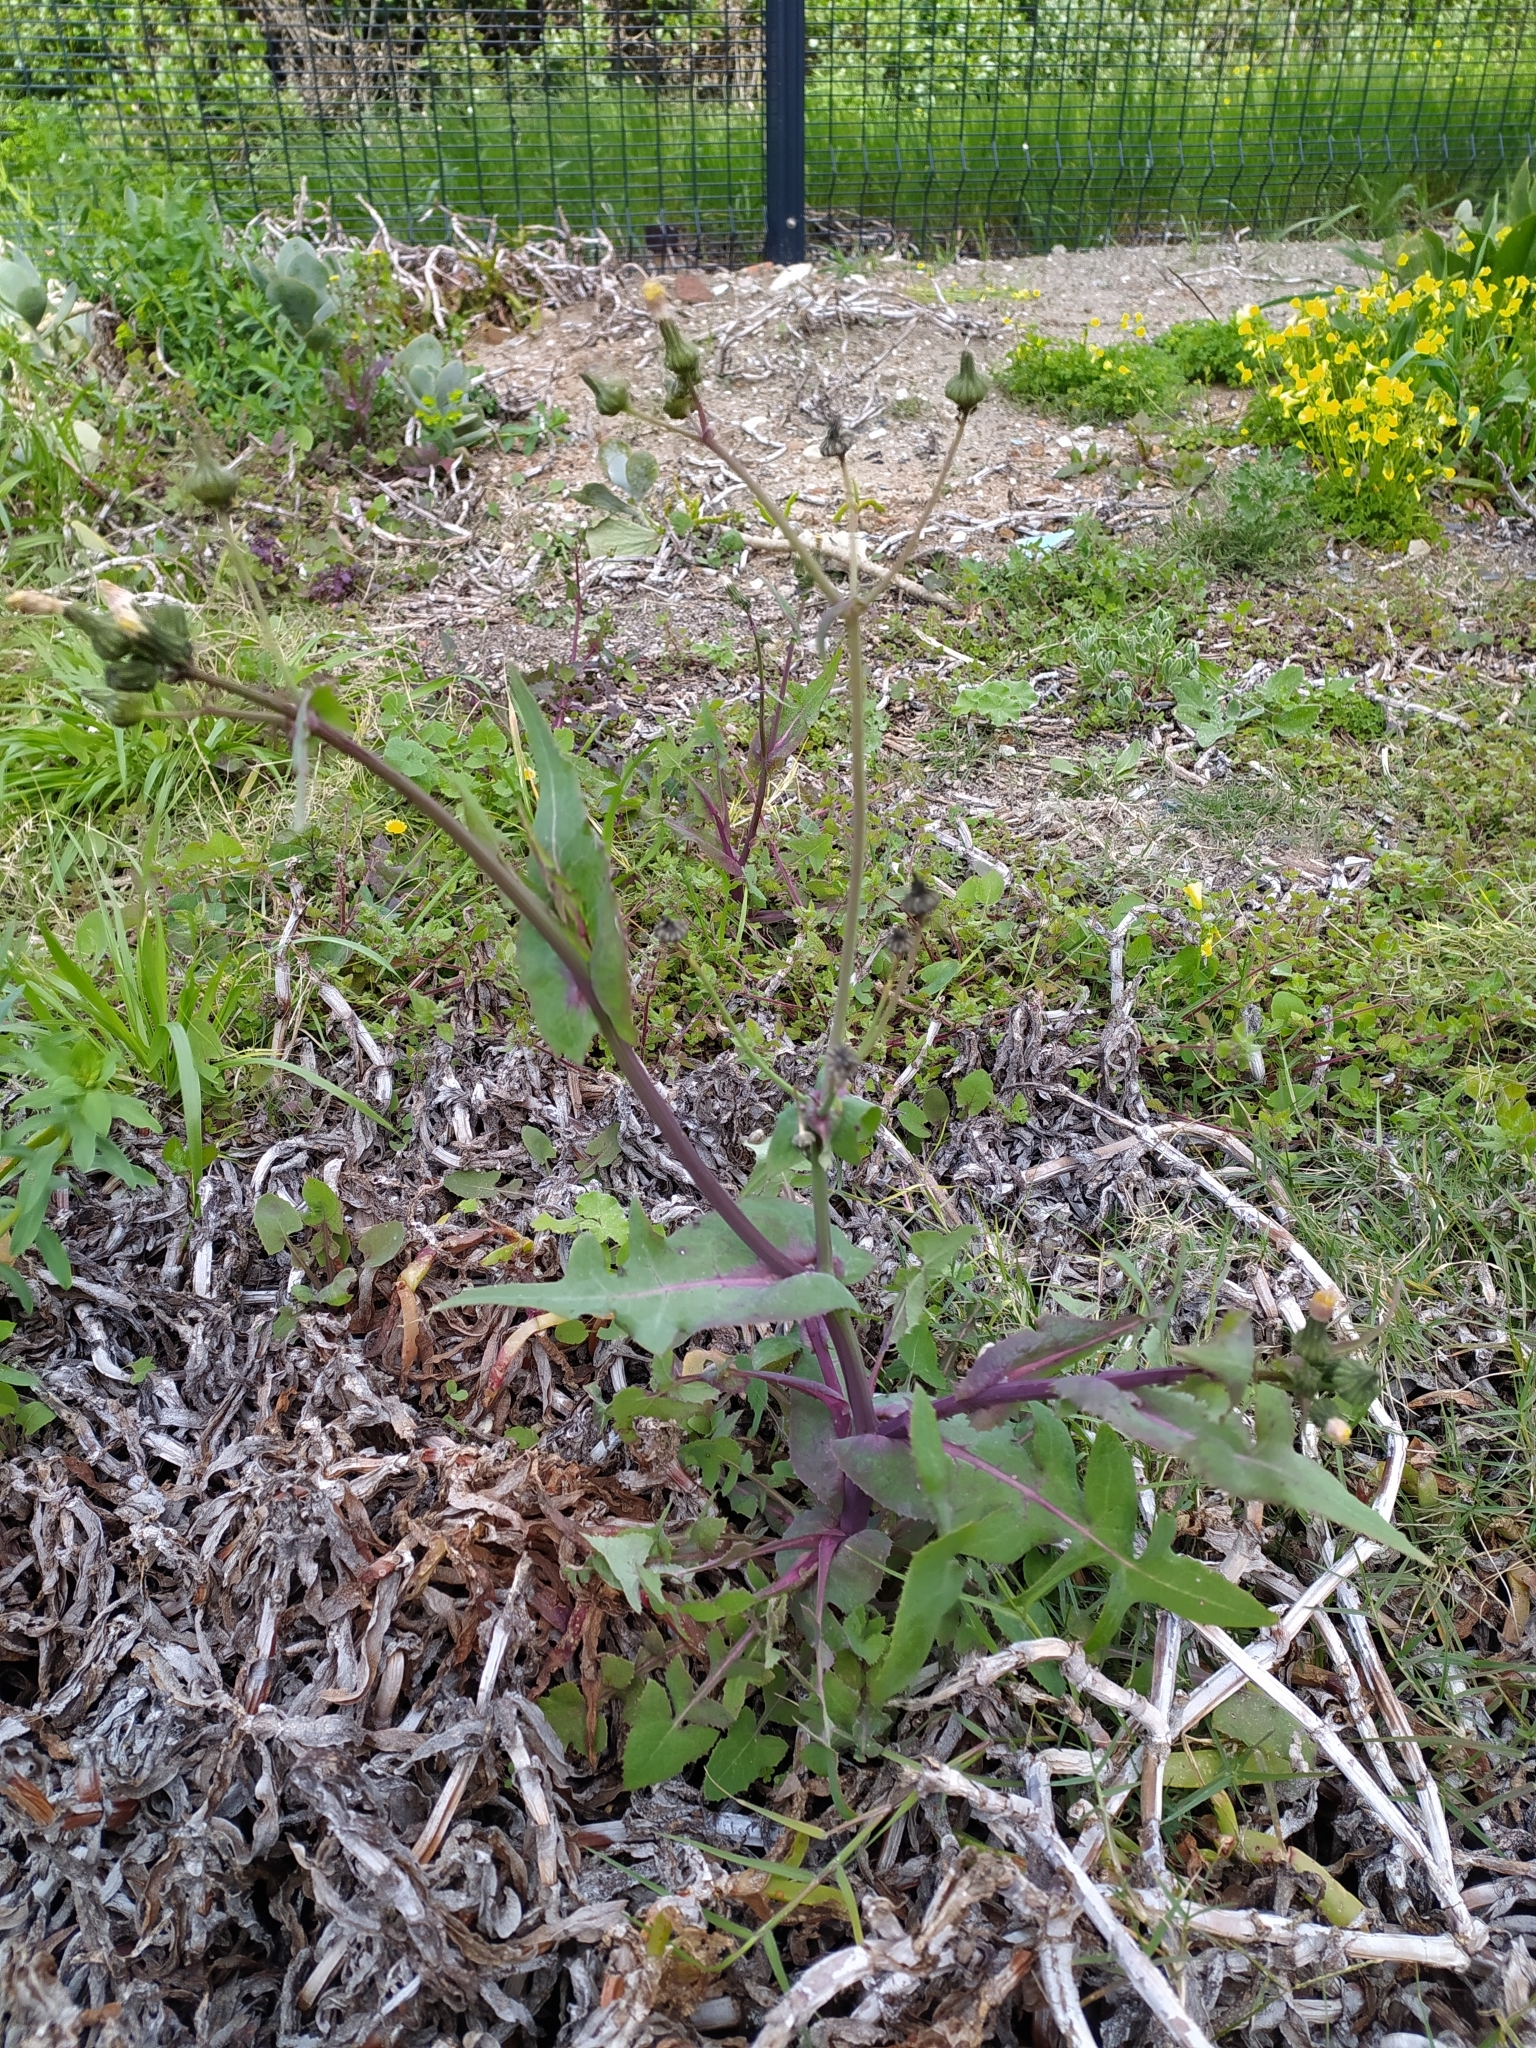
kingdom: Plantae
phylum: Tracheophyta
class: Magnoliopsida
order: Asterales
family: Asteraceae
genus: Sonchus
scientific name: Sonchus oleraceus
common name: Common sowthistle
